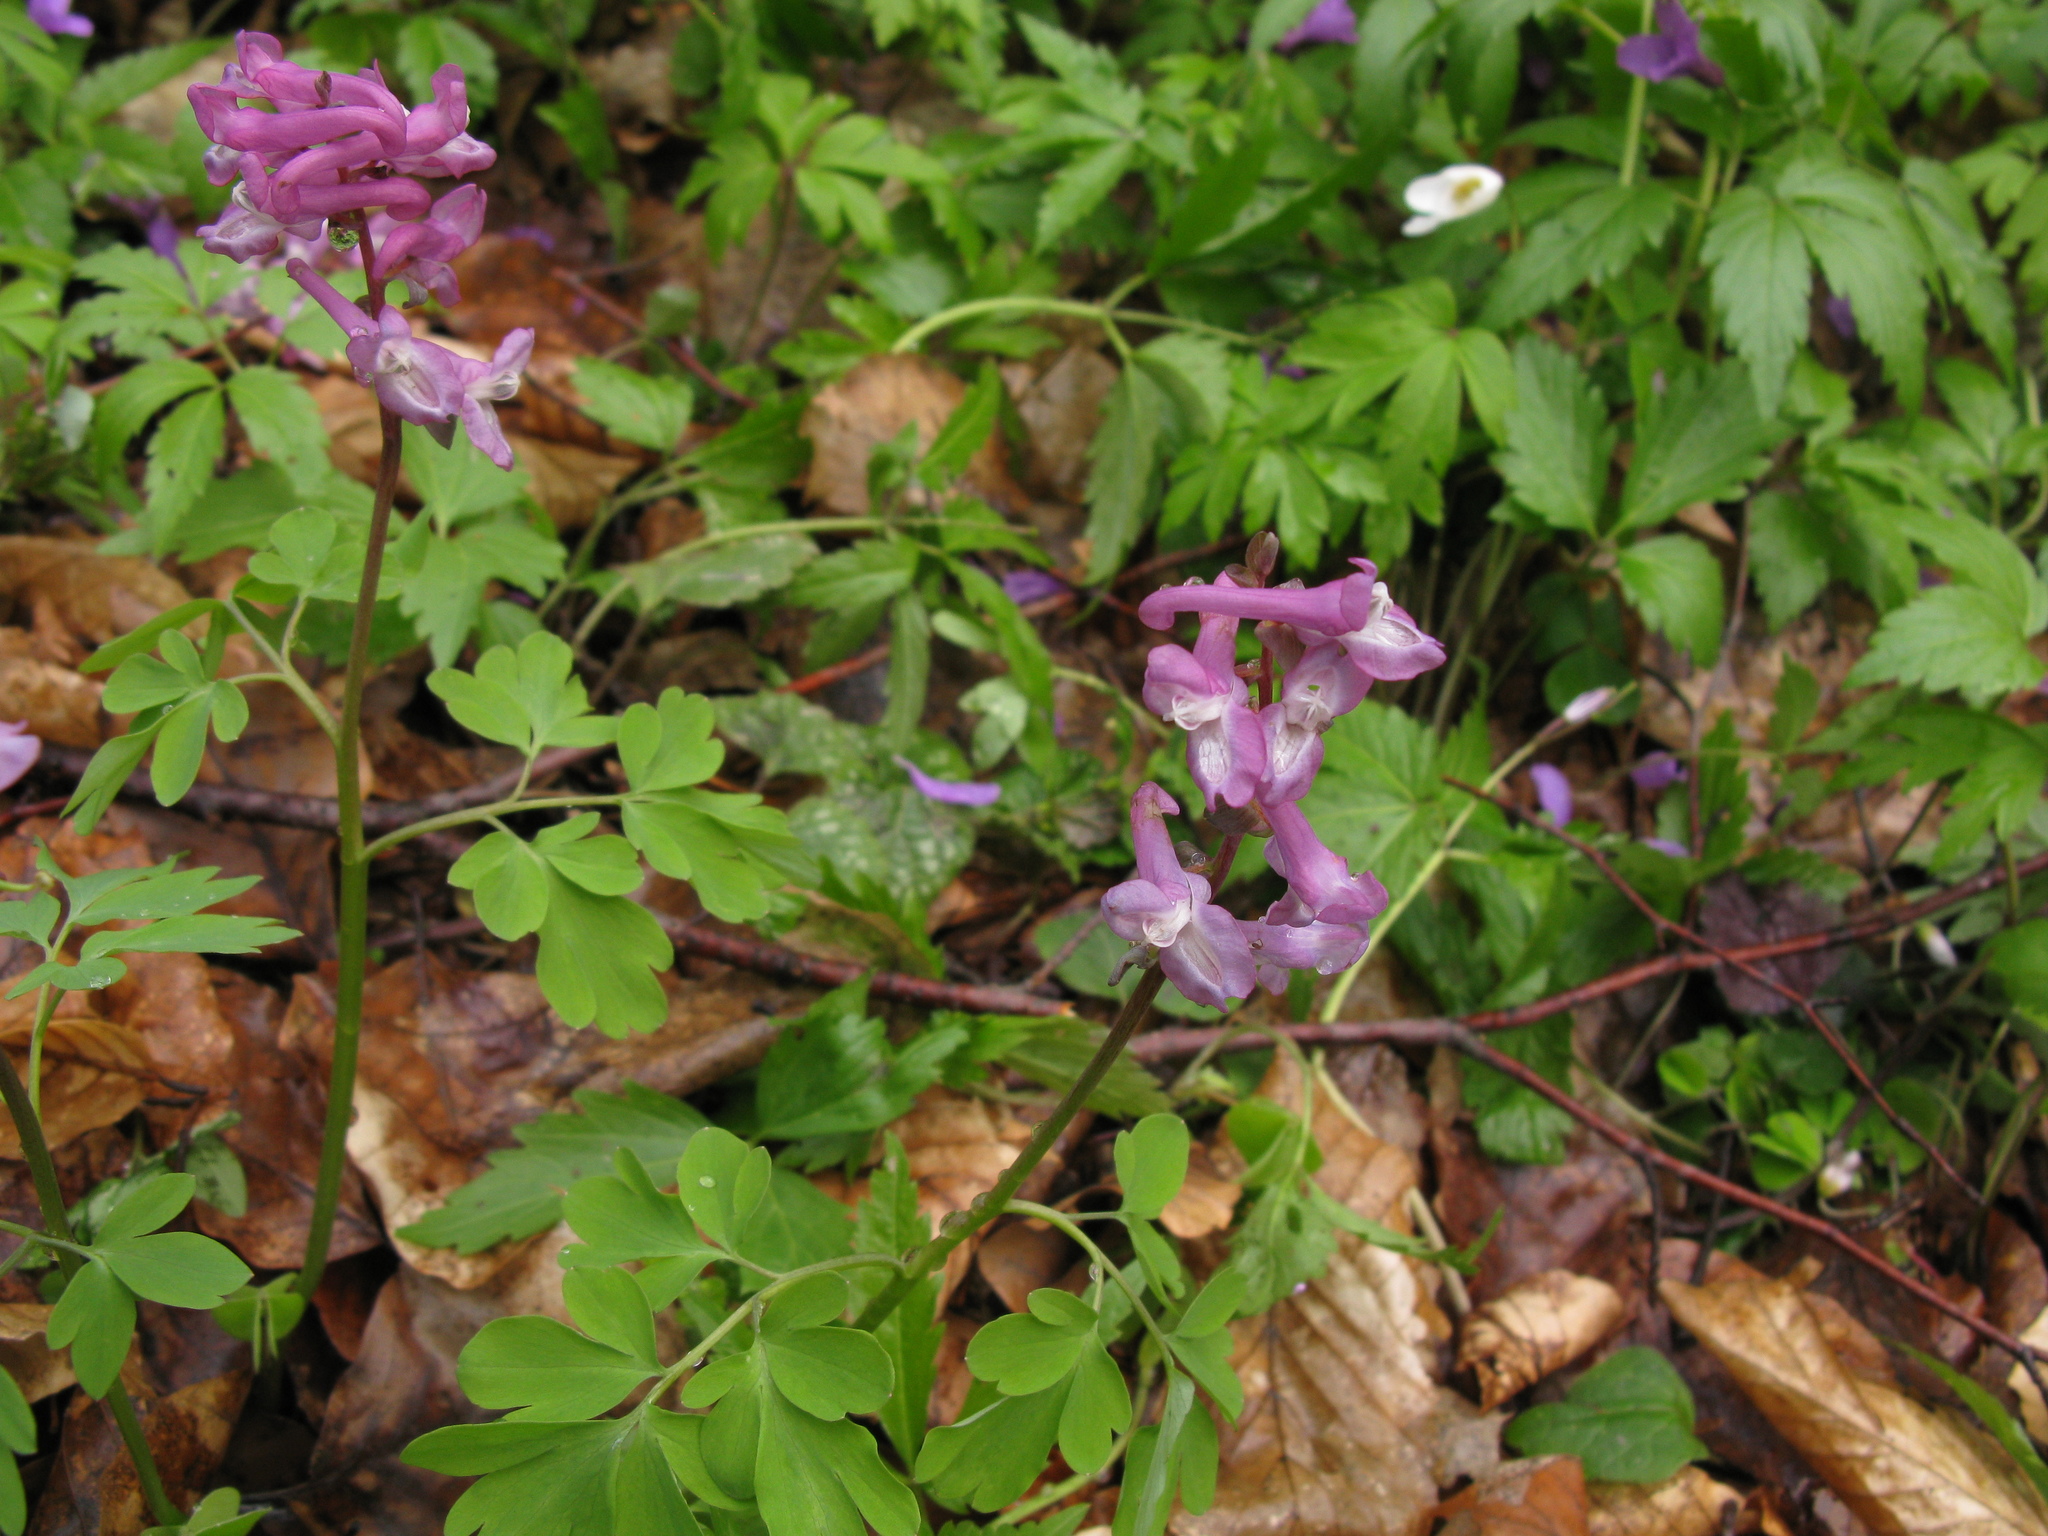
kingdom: Plantae
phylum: Tracheophyta
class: Magnoliopsida
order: Ranunculales
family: Papaveraceae
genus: Corydalis
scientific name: Corydalis cava
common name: Hollowroot
